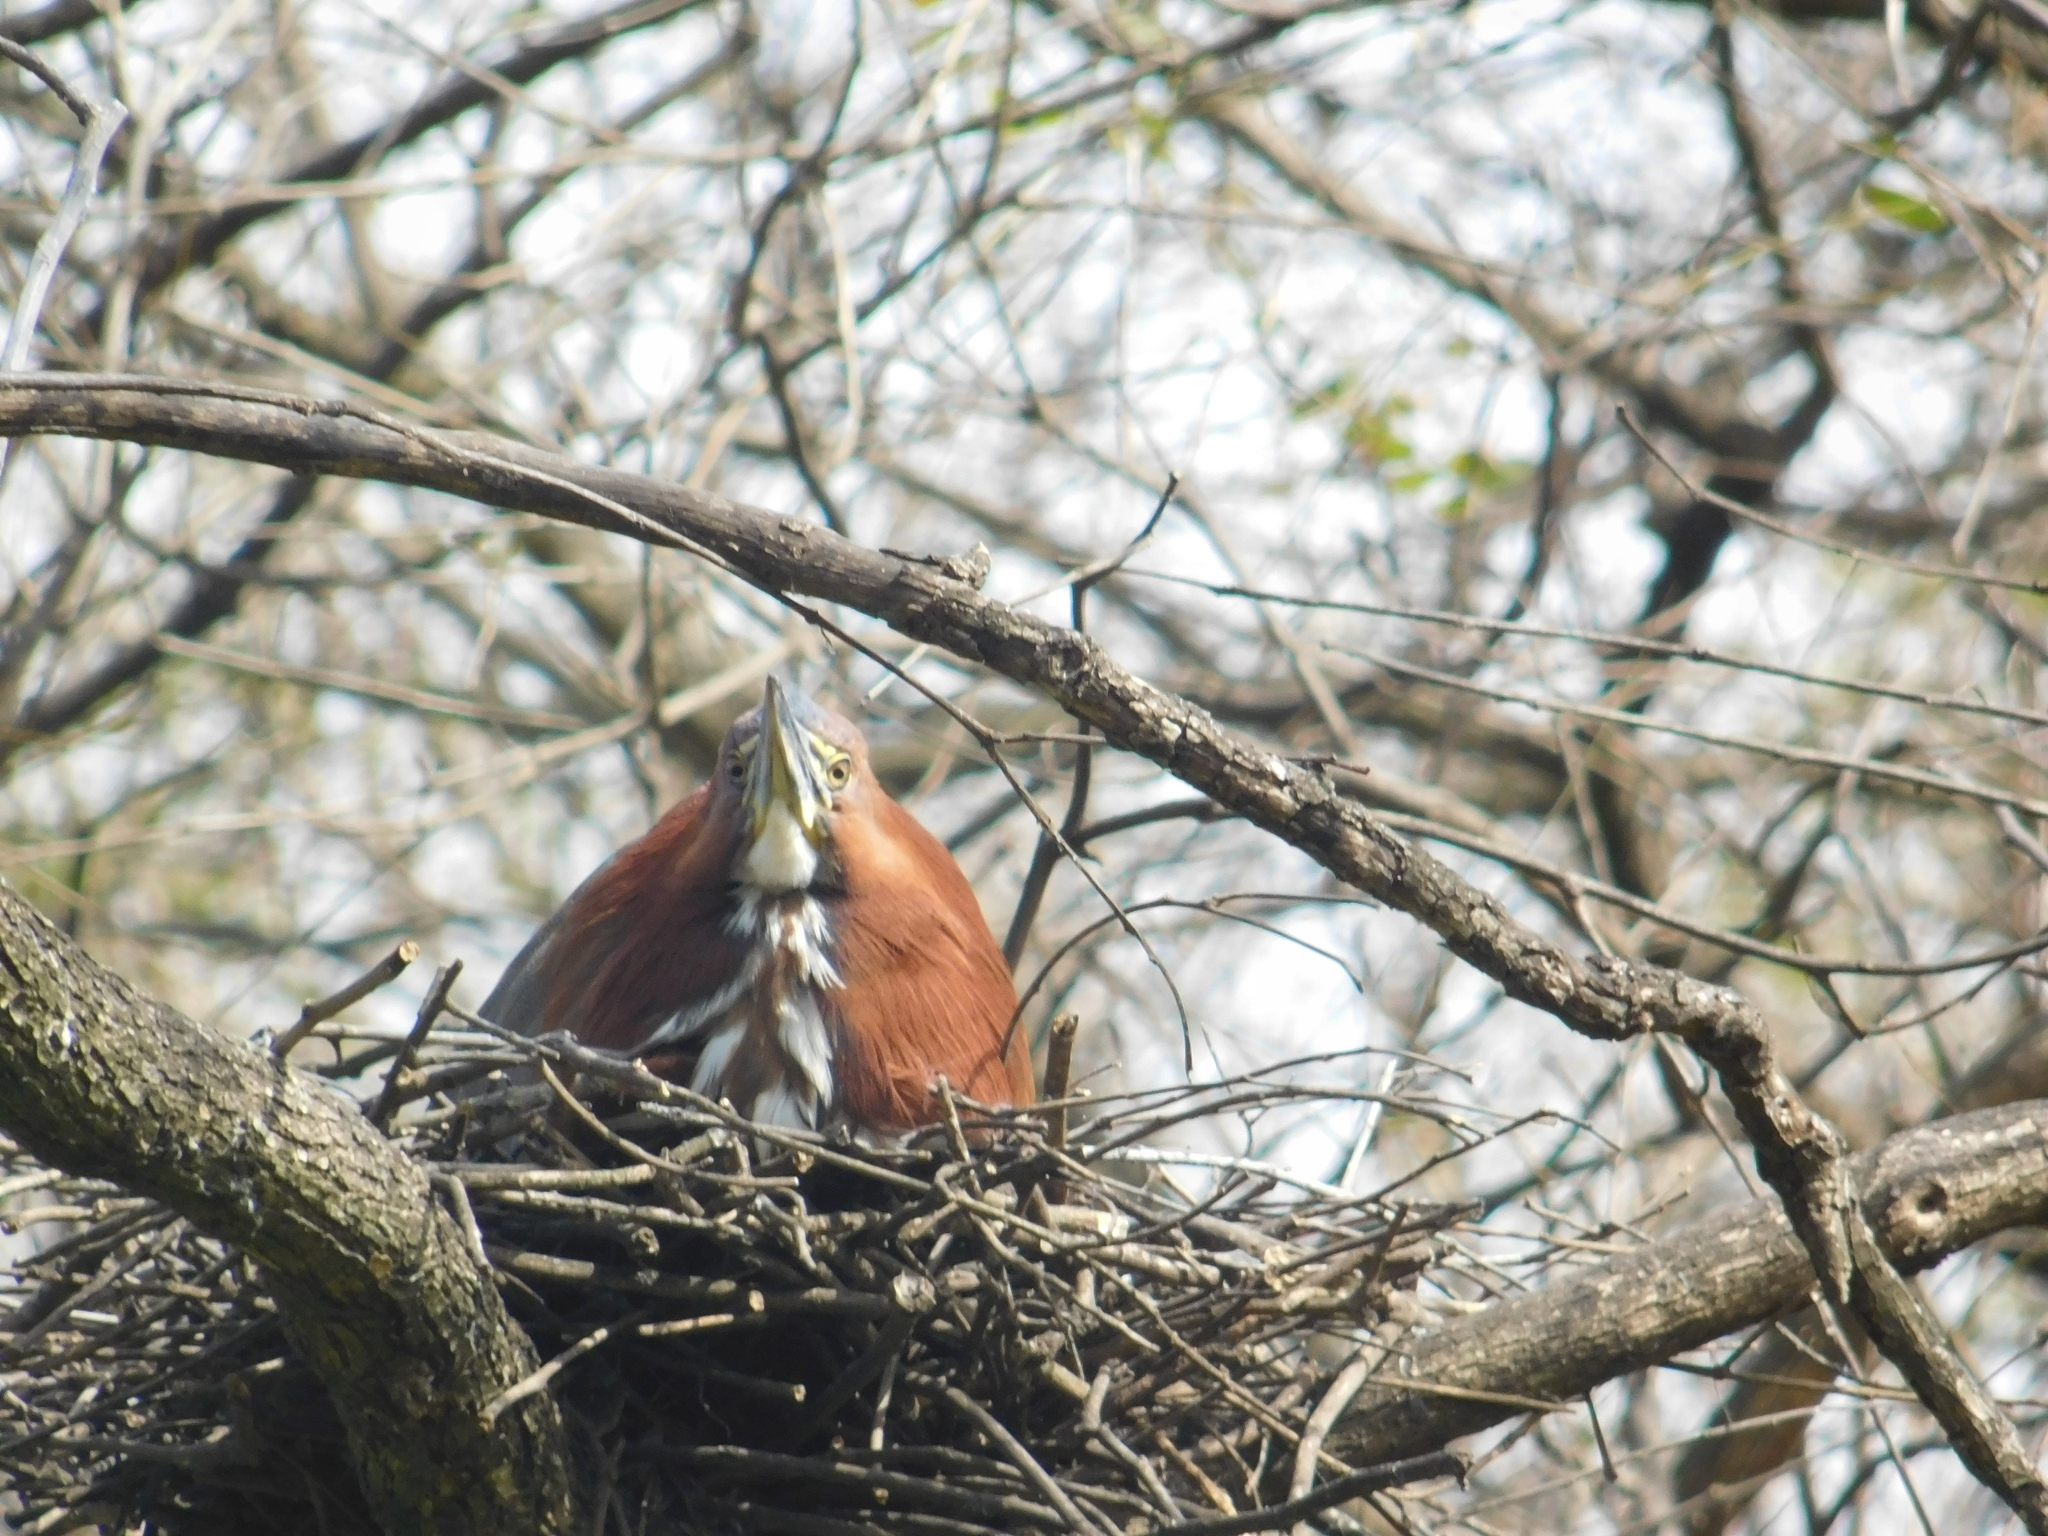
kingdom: Animalia
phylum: Chordata
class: Aves
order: Pelecaniformes
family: Ardeidae
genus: Tigrisoma
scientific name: Tigrisoma lineatum
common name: Rufescent tiger-heron
